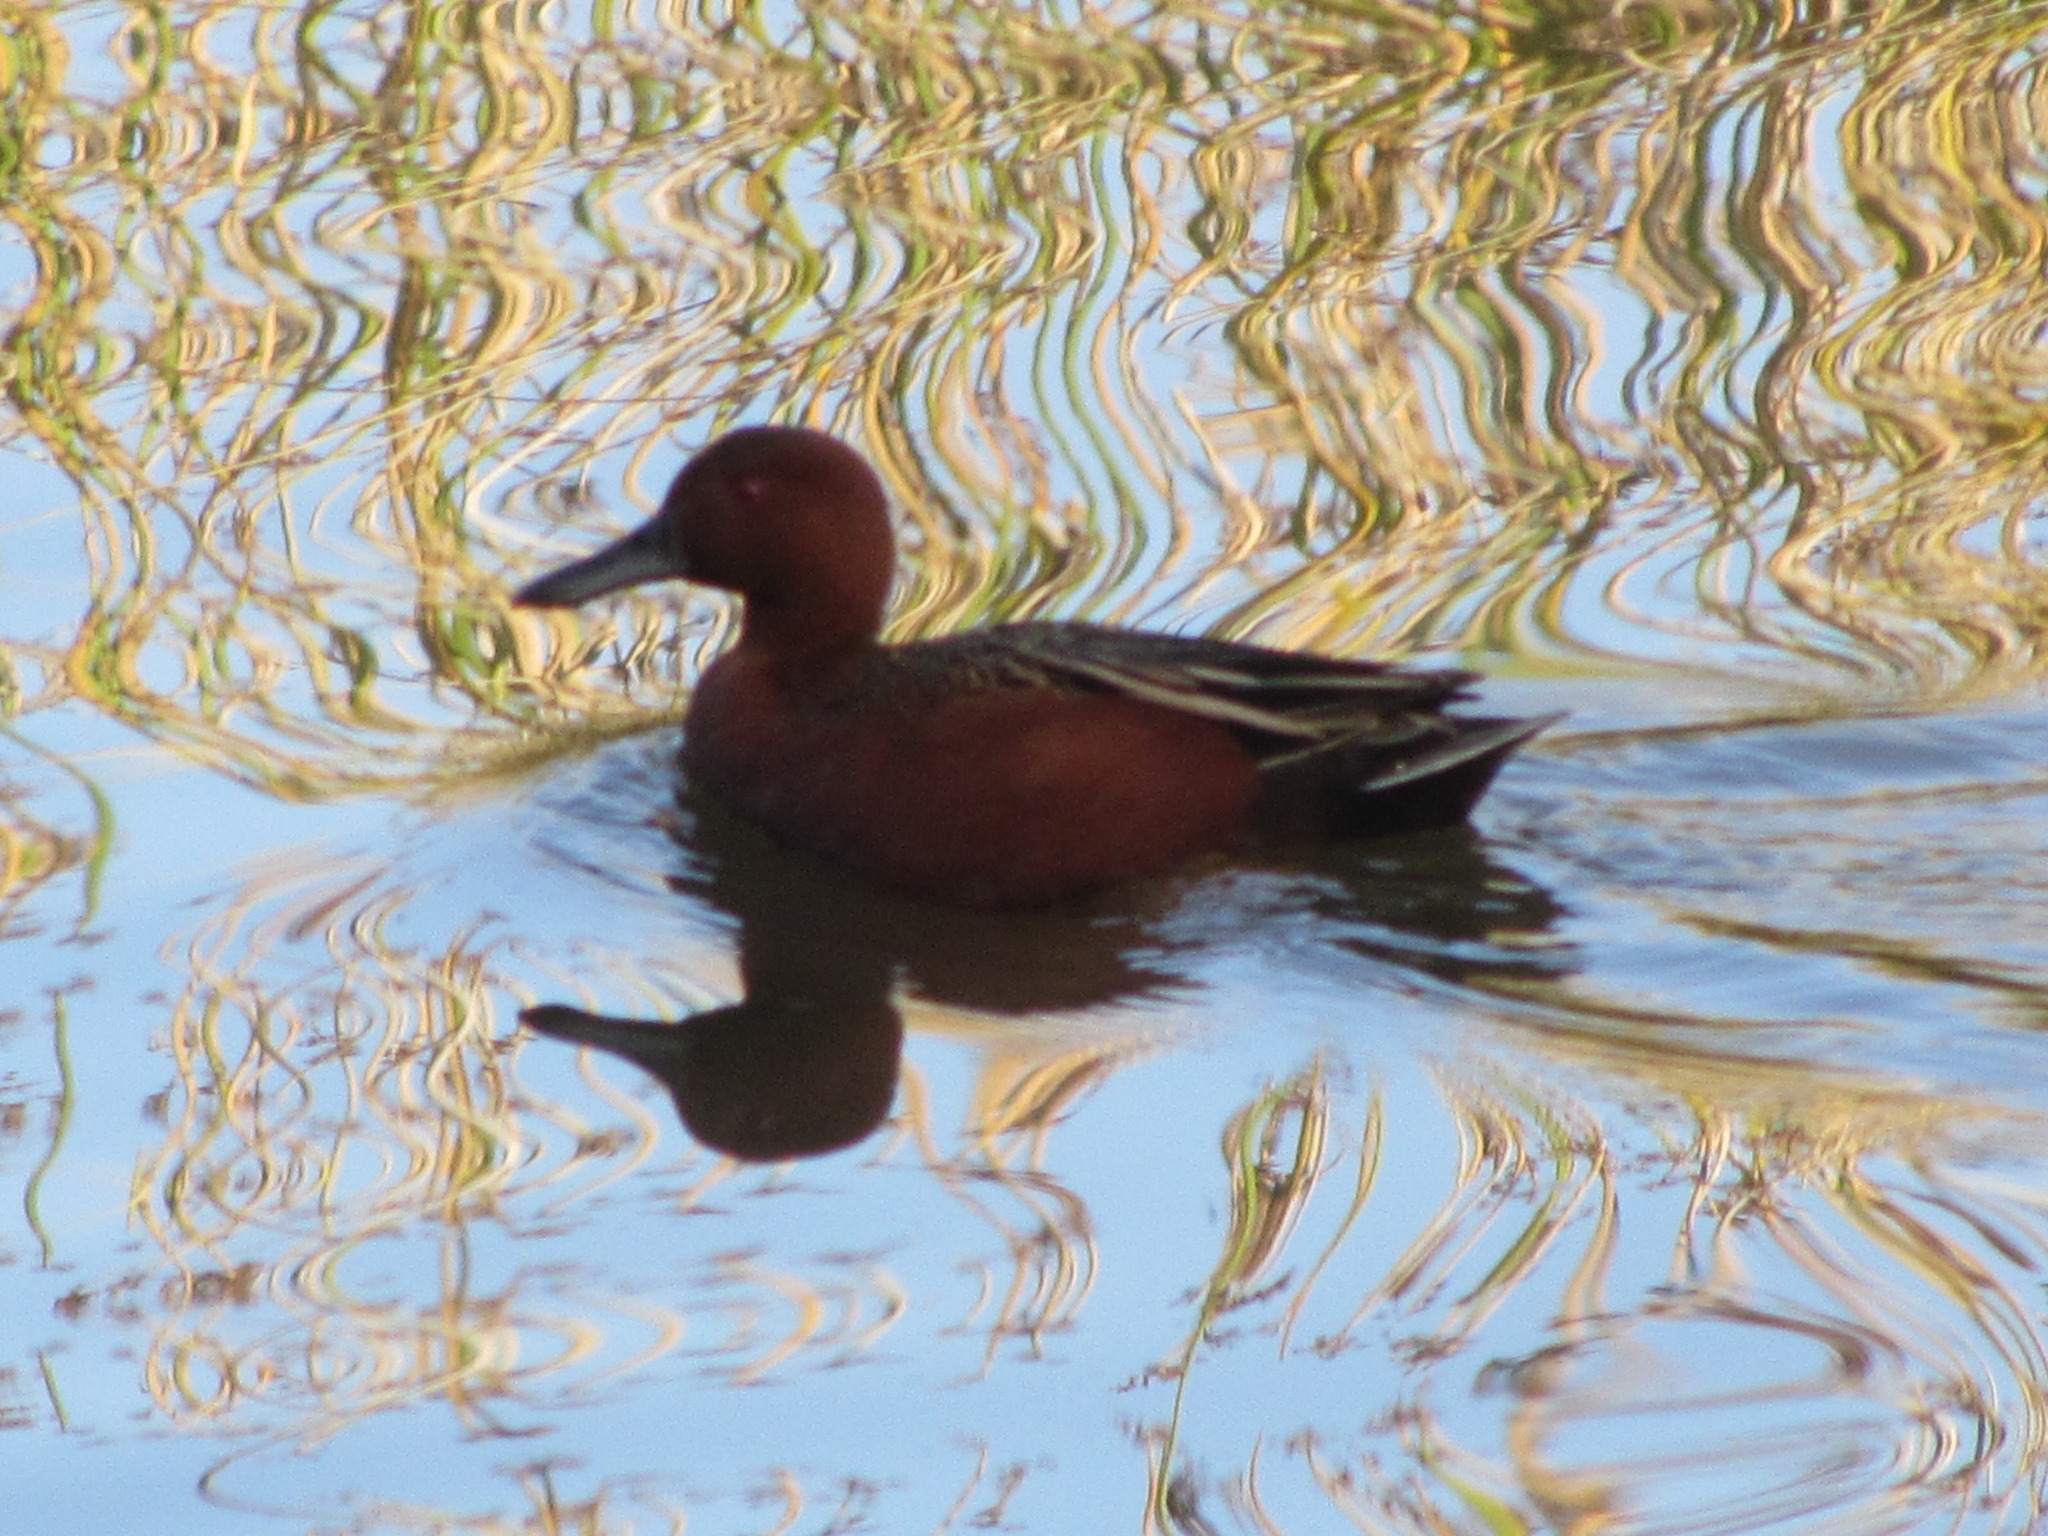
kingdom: Animalia
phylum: Chordata
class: Aves
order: Anseriformes
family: Anatidae
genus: Spatula
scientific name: Spatula cyanoptera
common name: Cinnamon teal
